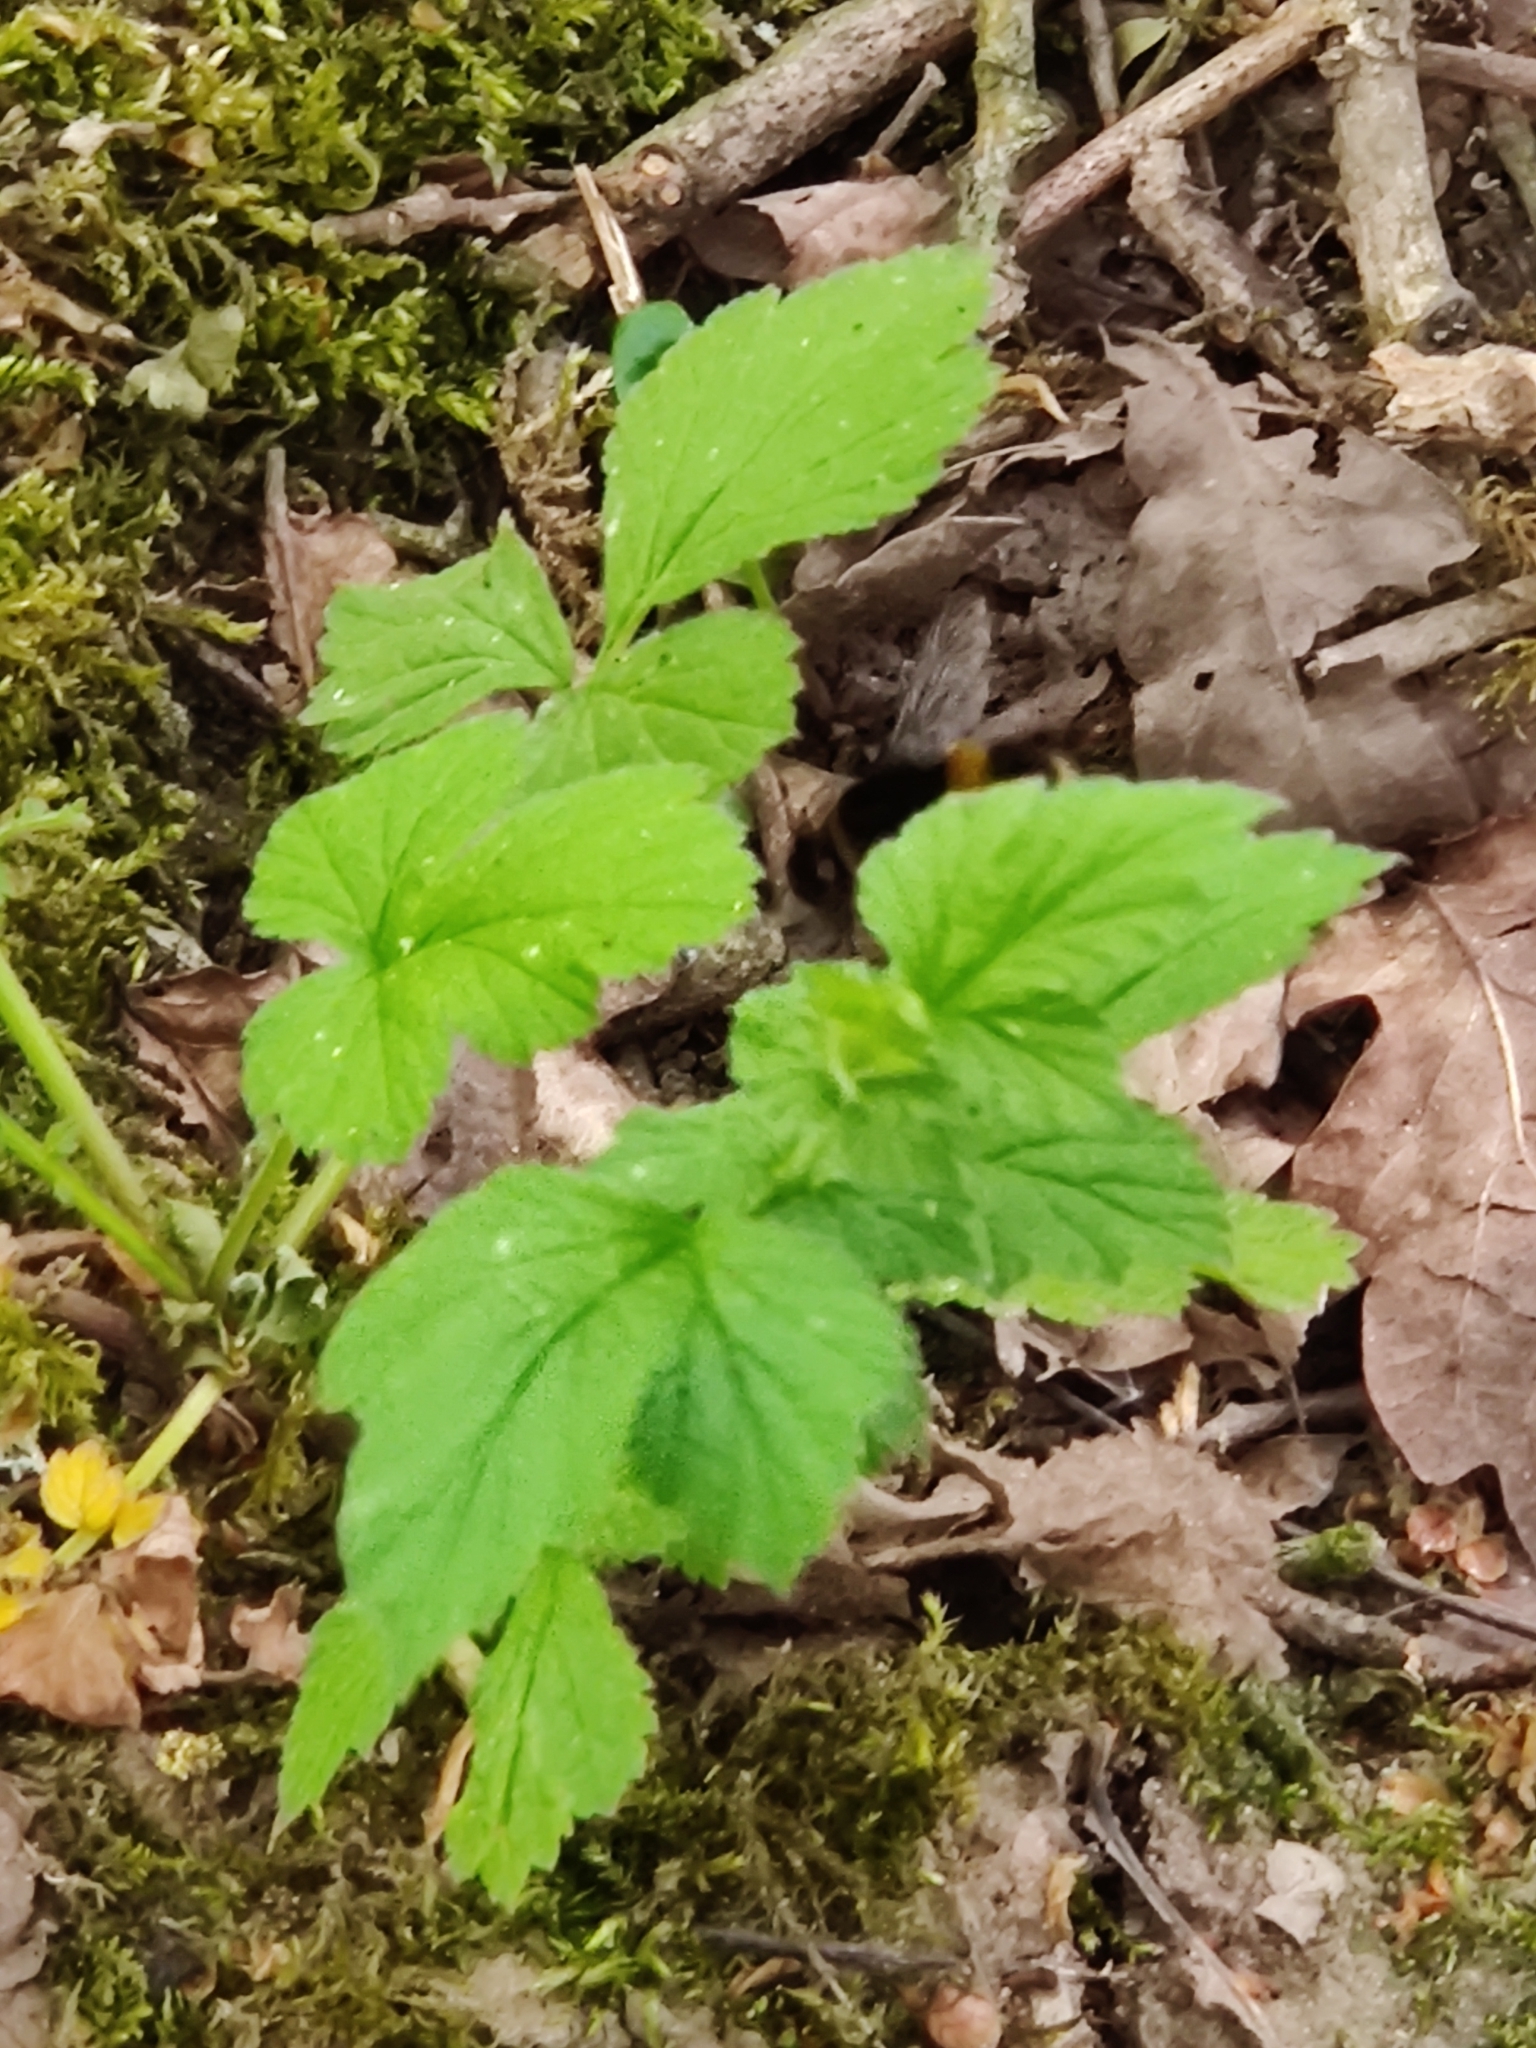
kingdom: Plantae
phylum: Tracheophyta
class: Magnoliopsida
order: Rosales
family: Rosaceae
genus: Geum
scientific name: Geum urbanum
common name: Wood avens
